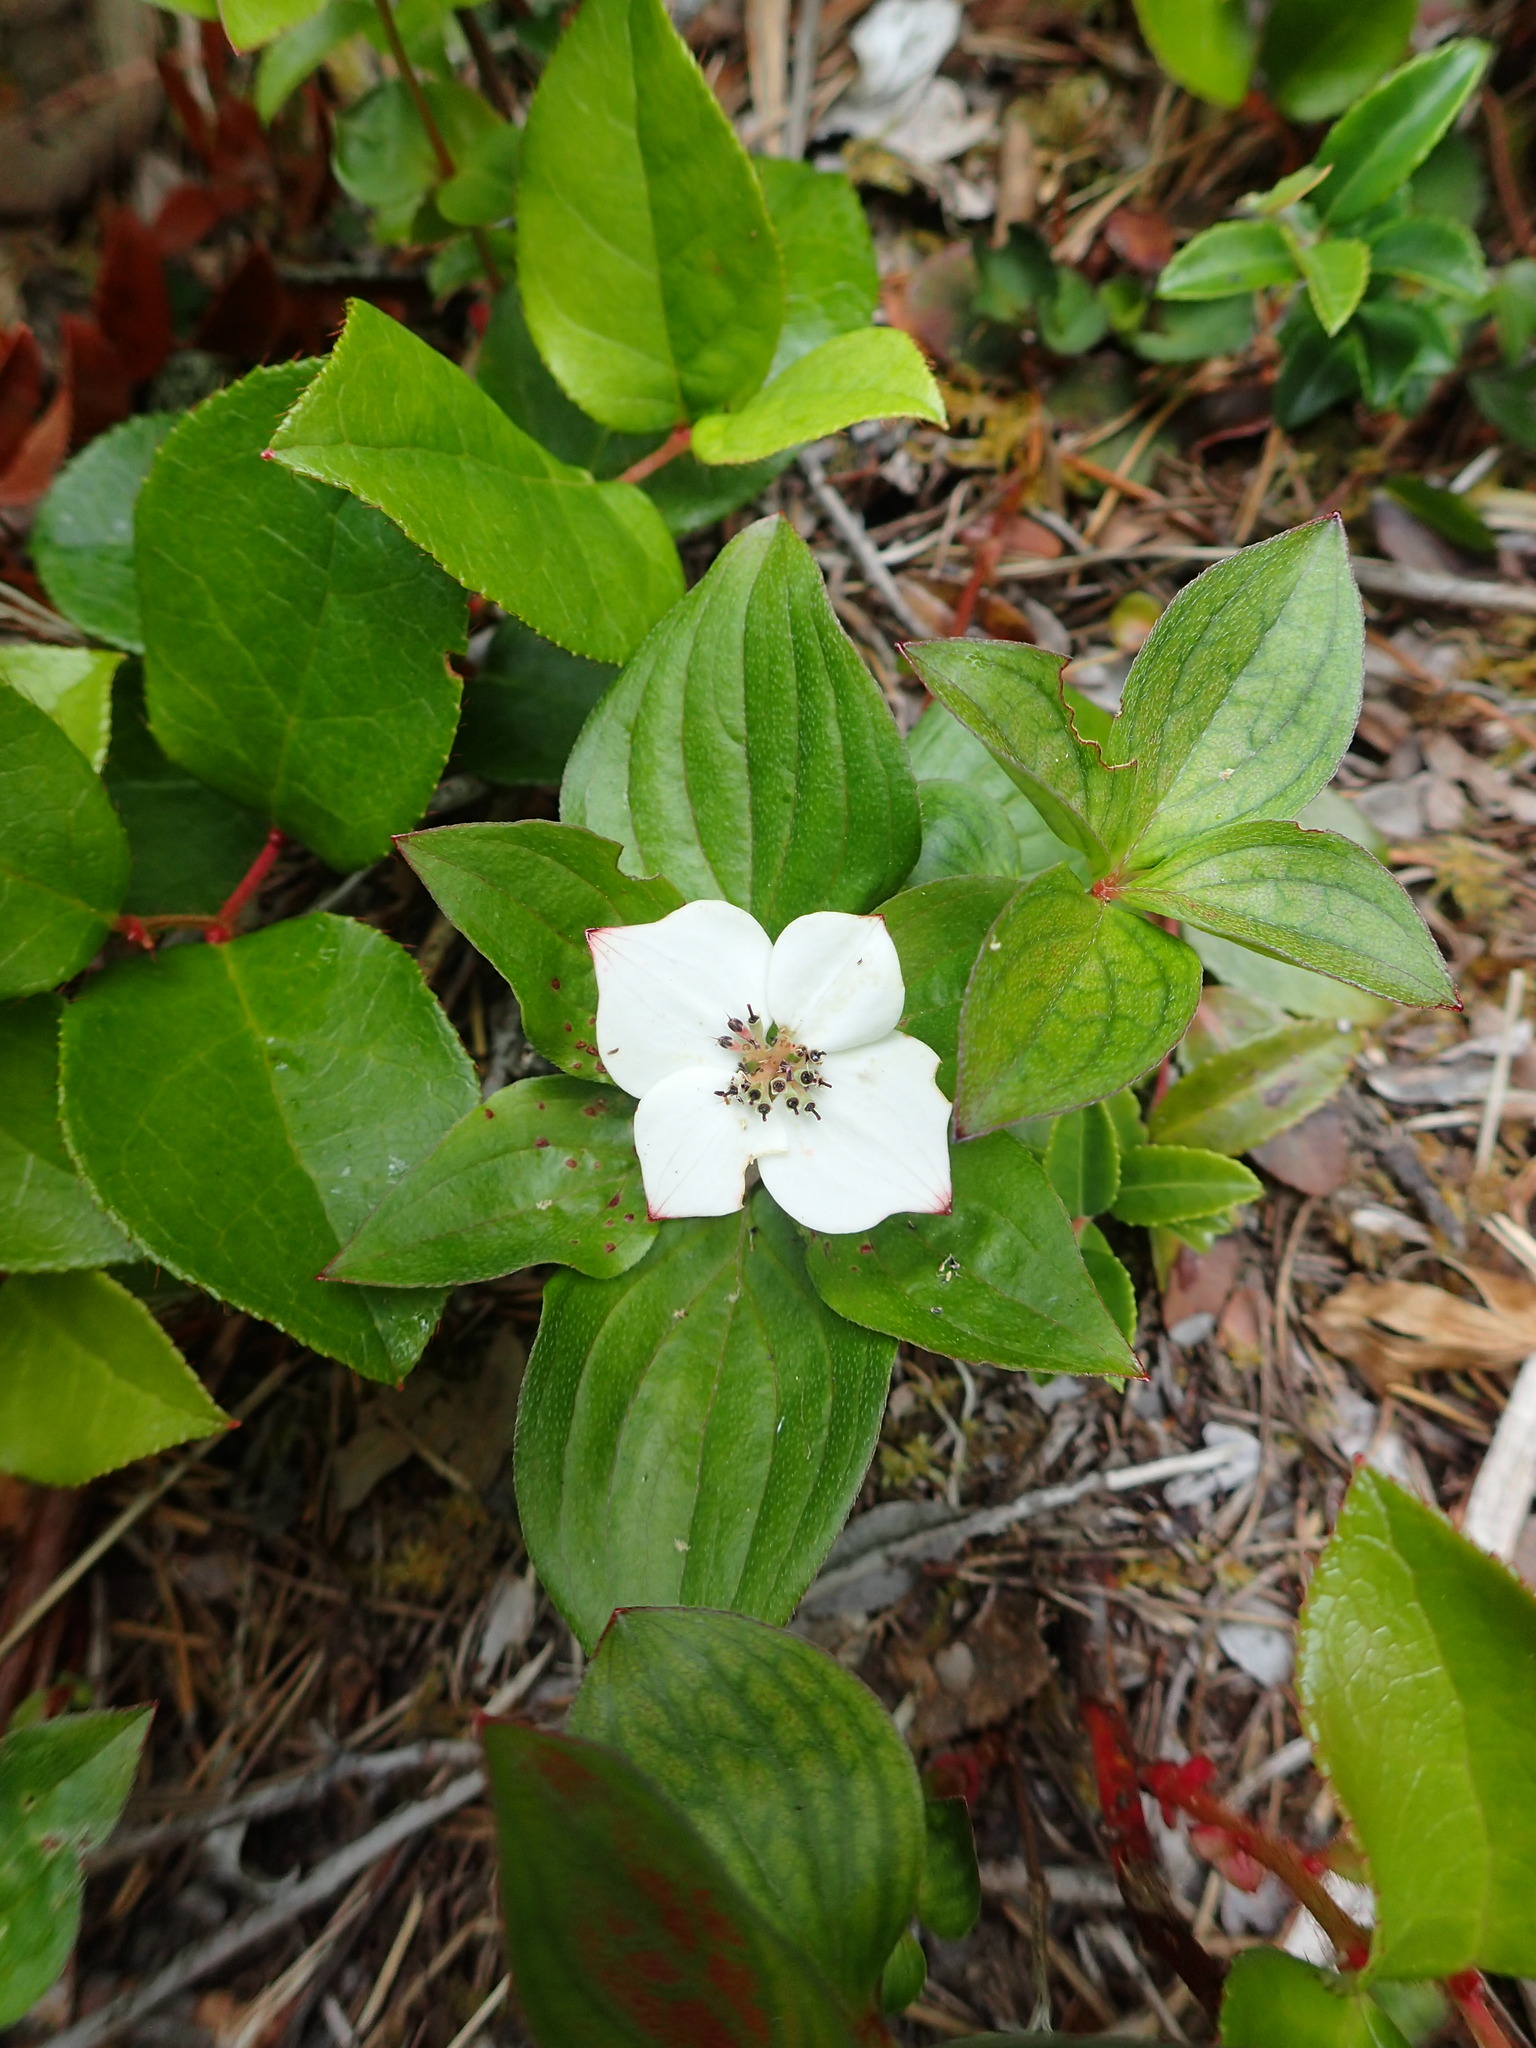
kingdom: Plantae
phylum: Tracheophyta
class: Magnoliopsida
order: Cornales
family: Cornaceae
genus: Cornus
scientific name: Cornus unalaschkensis
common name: Alaska bunchberry
